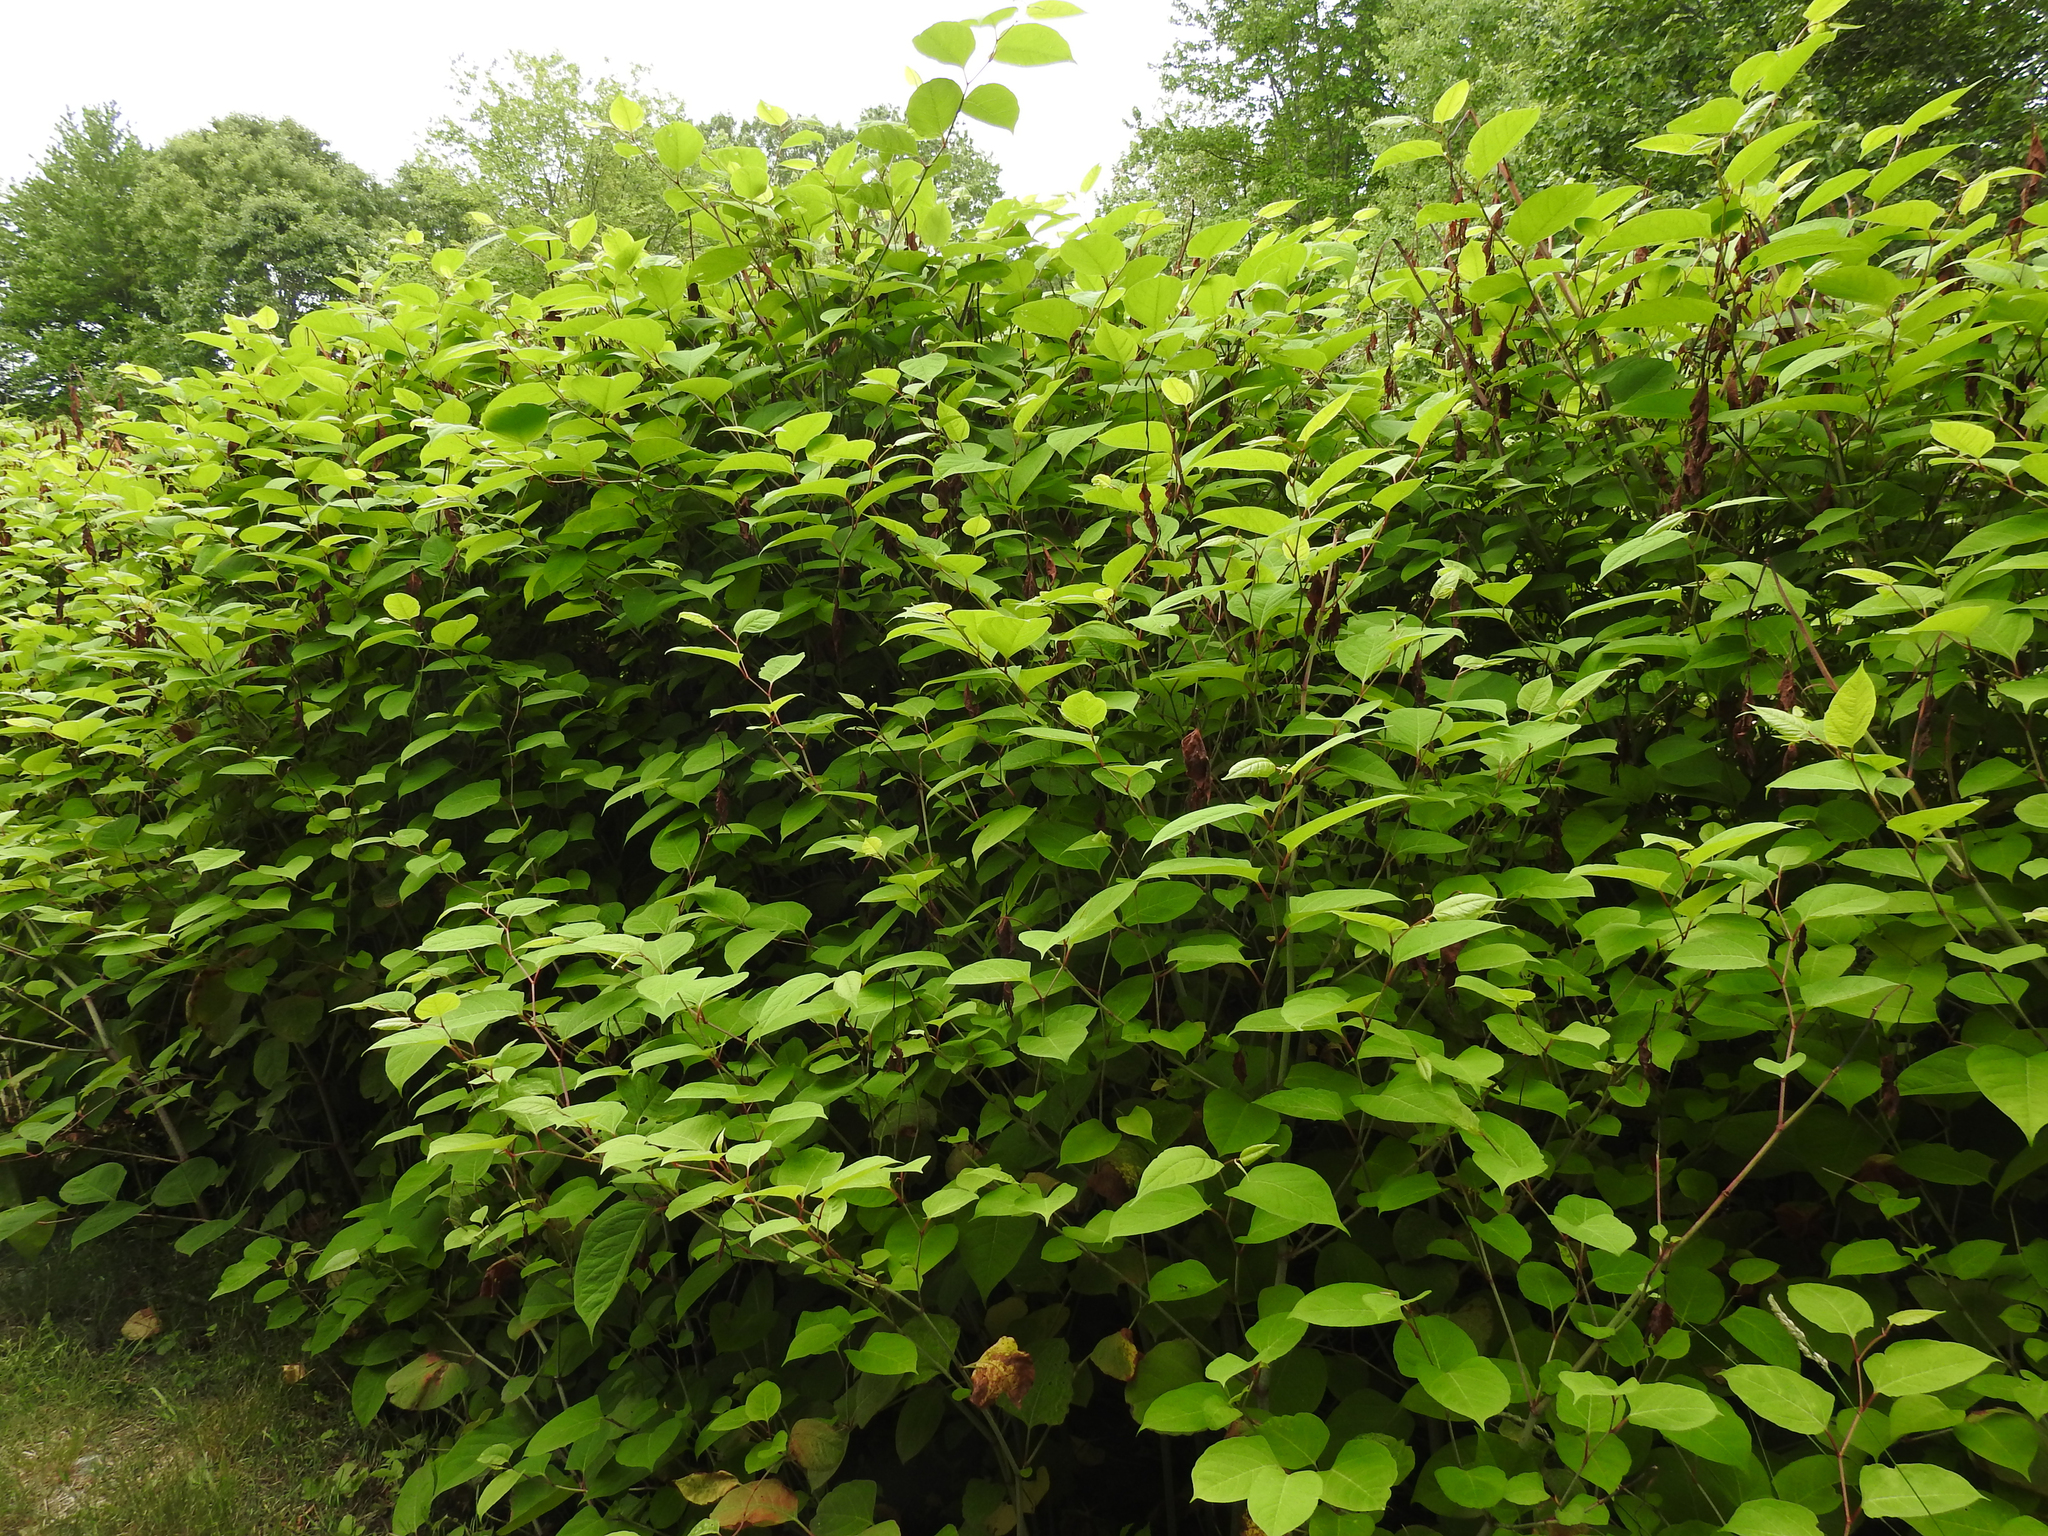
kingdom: Plantae
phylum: Tracheophyta
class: Magnoliopsida
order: Caryophyllales
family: Polygonaceae
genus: Reynoutria
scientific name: Reynoutria japonica
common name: Japanese knotweed
